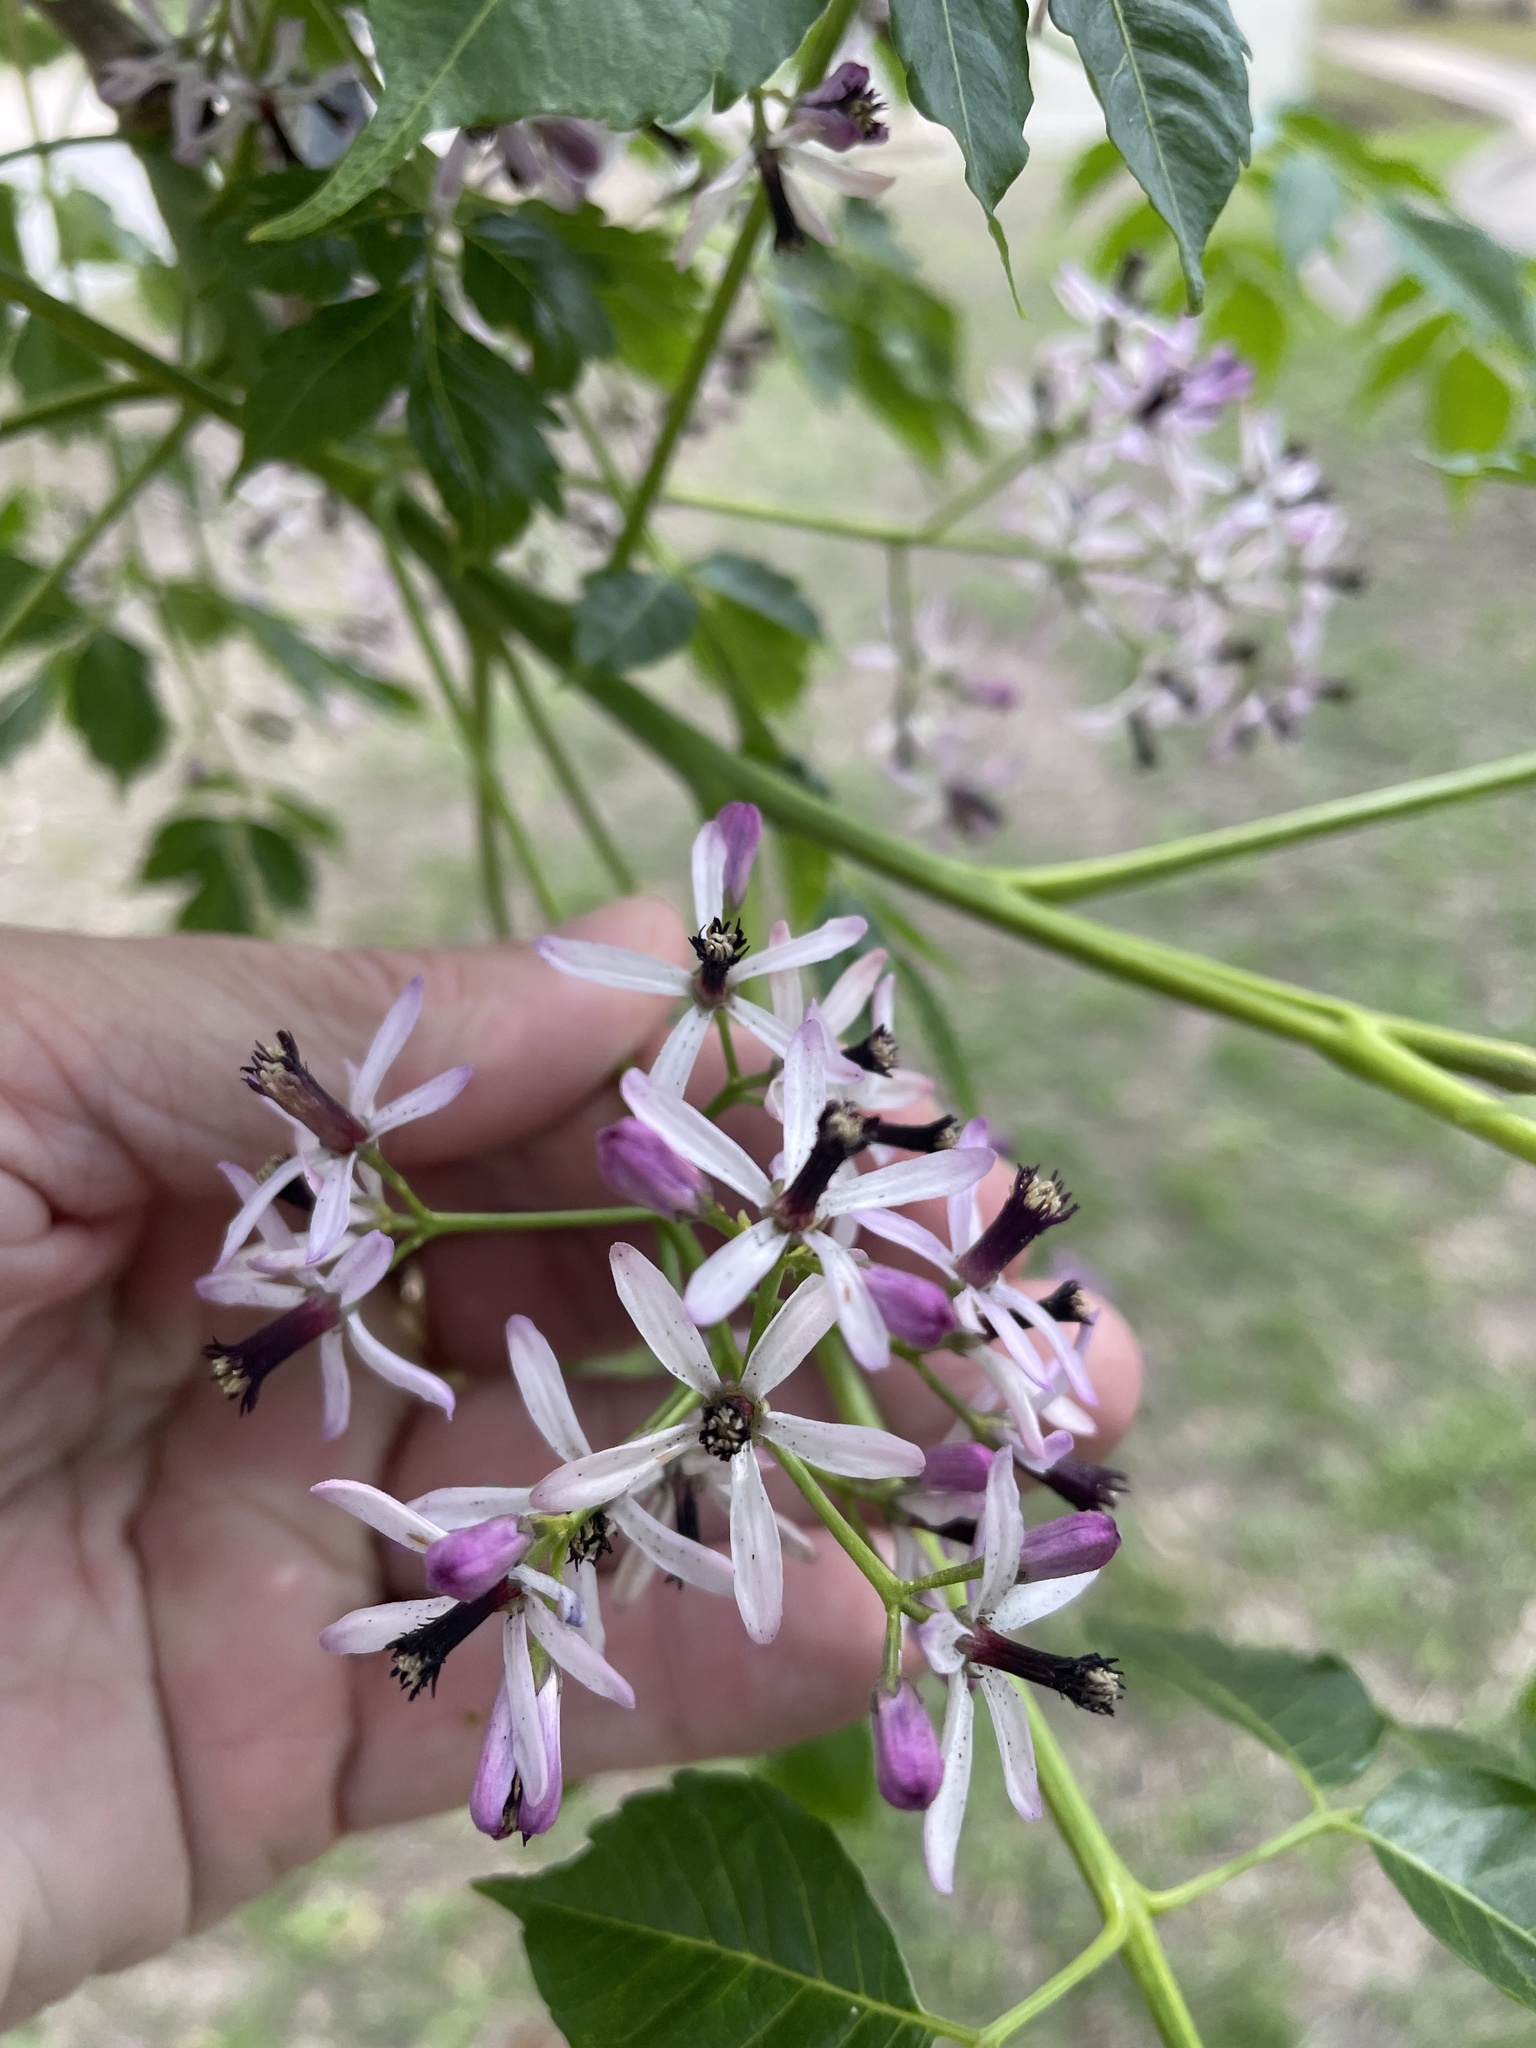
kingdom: Plantae
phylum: Tracheophyta
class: Magnoliopsida
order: Sapindales
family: Meliaceae
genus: Melia
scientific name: Melia azedarach
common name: Chinaberrytree
